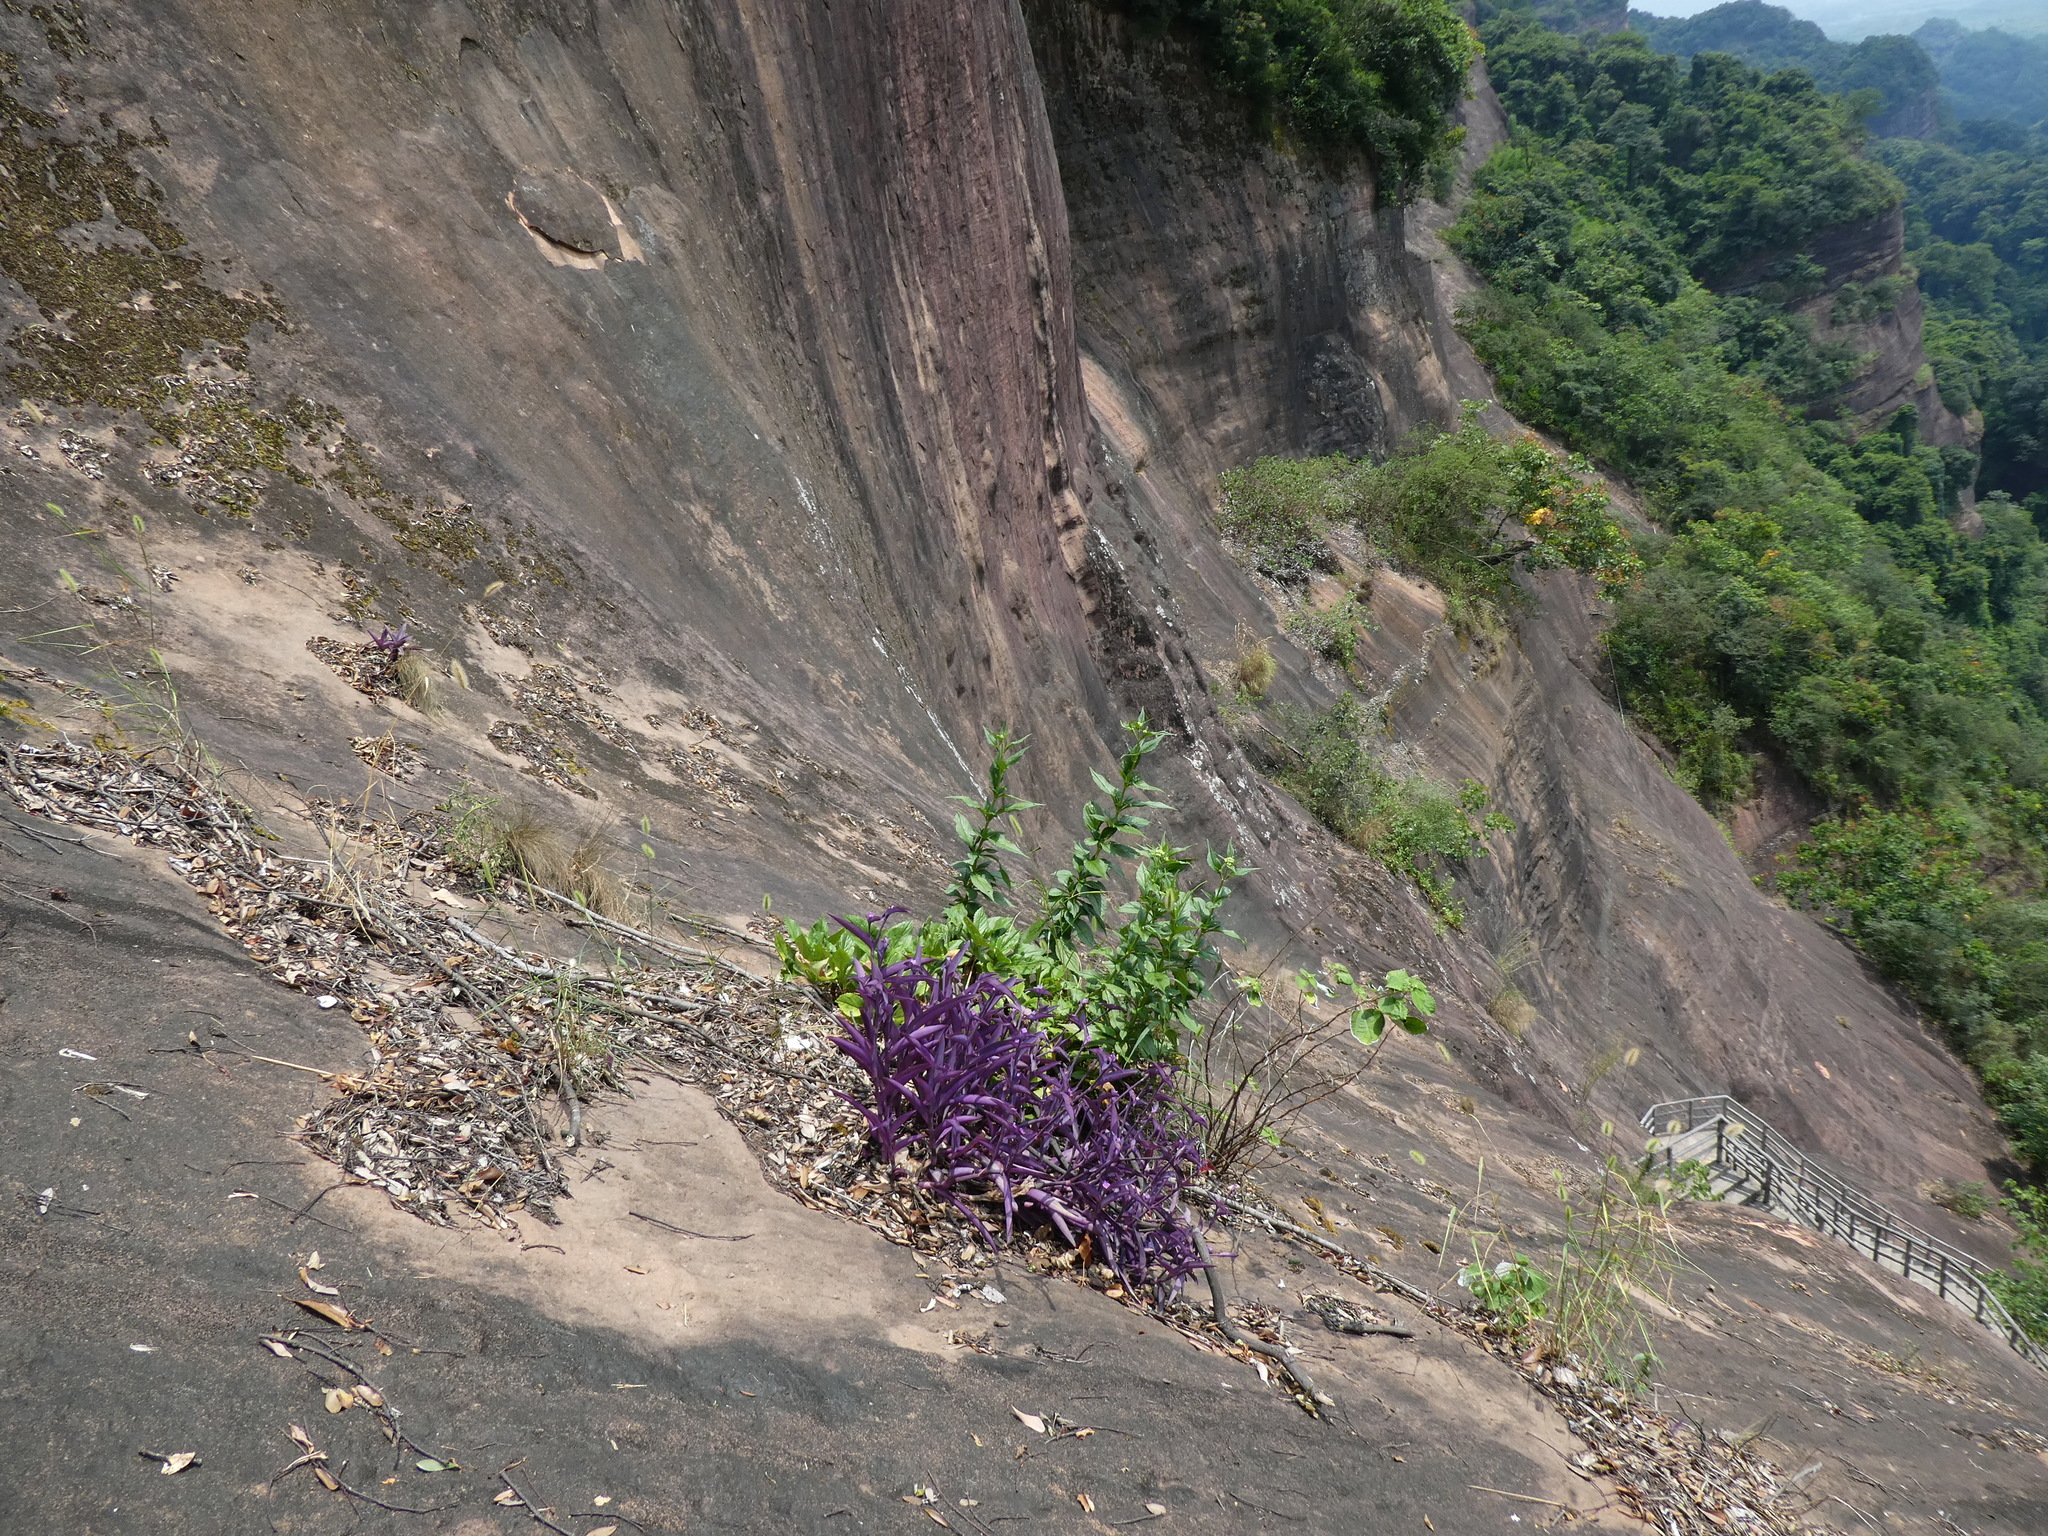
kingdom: Plantae
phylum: Tracheophyta
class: Liliopsida
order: Commelinales
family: Commelinaceae
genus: Tradescantia
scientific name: Tradescantia pallida
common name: Purpleheart
